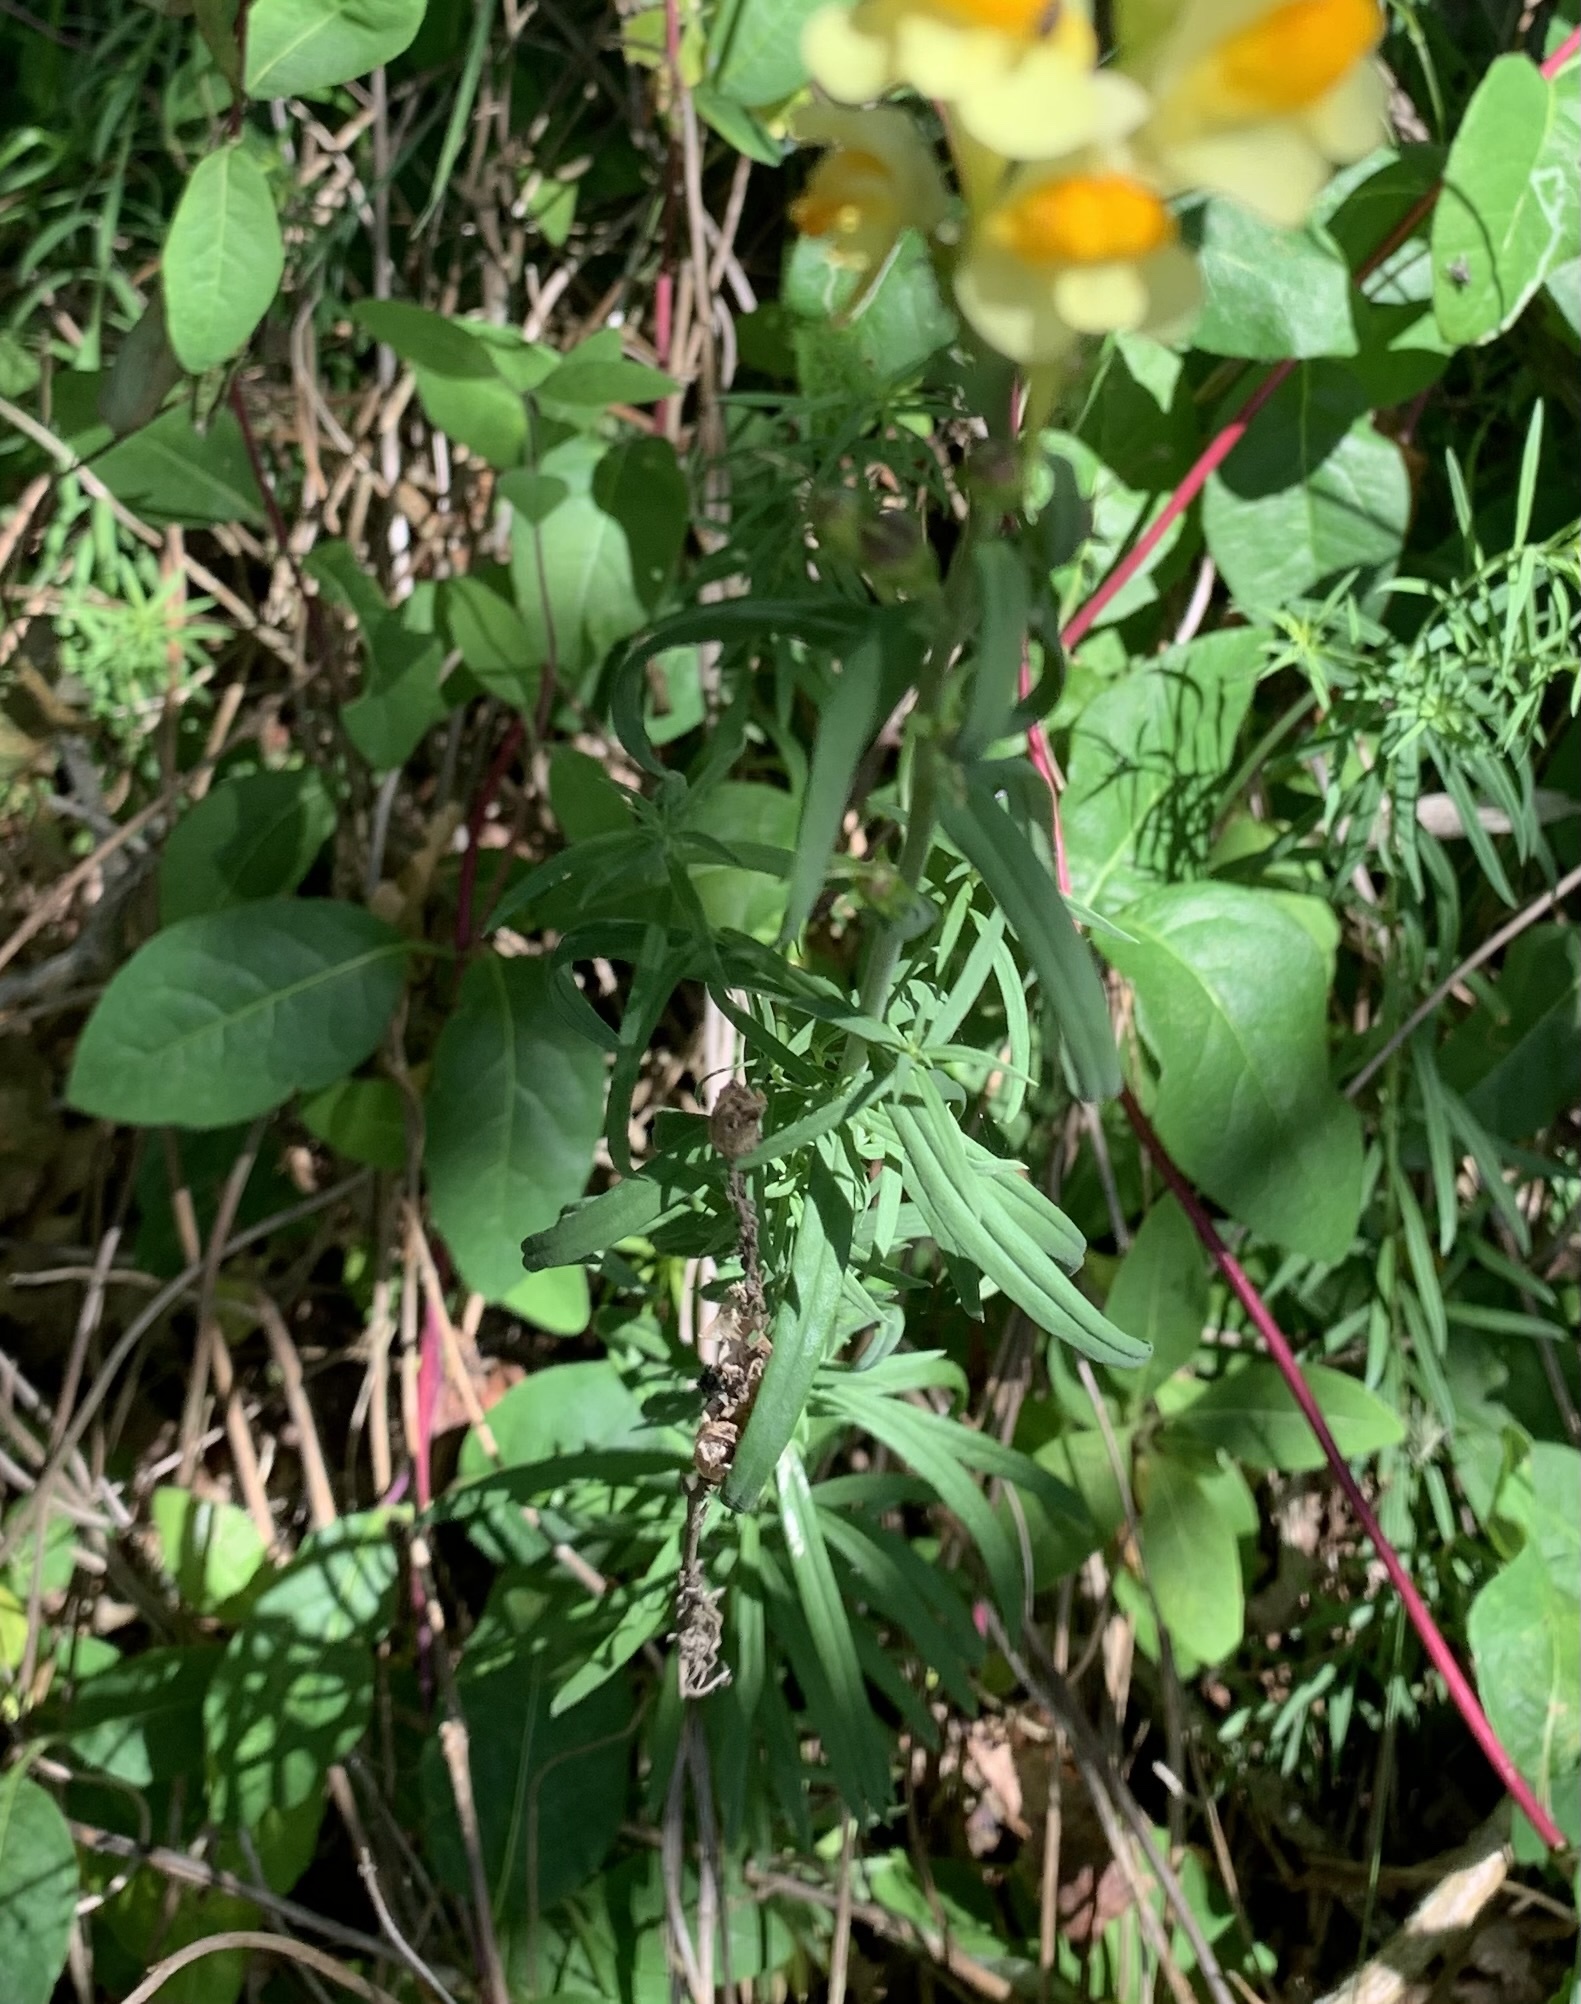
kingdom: Plantae
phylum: Tracheophyta
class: Magnoliopsida
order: Lamiales
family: Plantaginaceae
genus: Linaria
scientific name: Linaria vulgaris
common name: Butter and eggs
